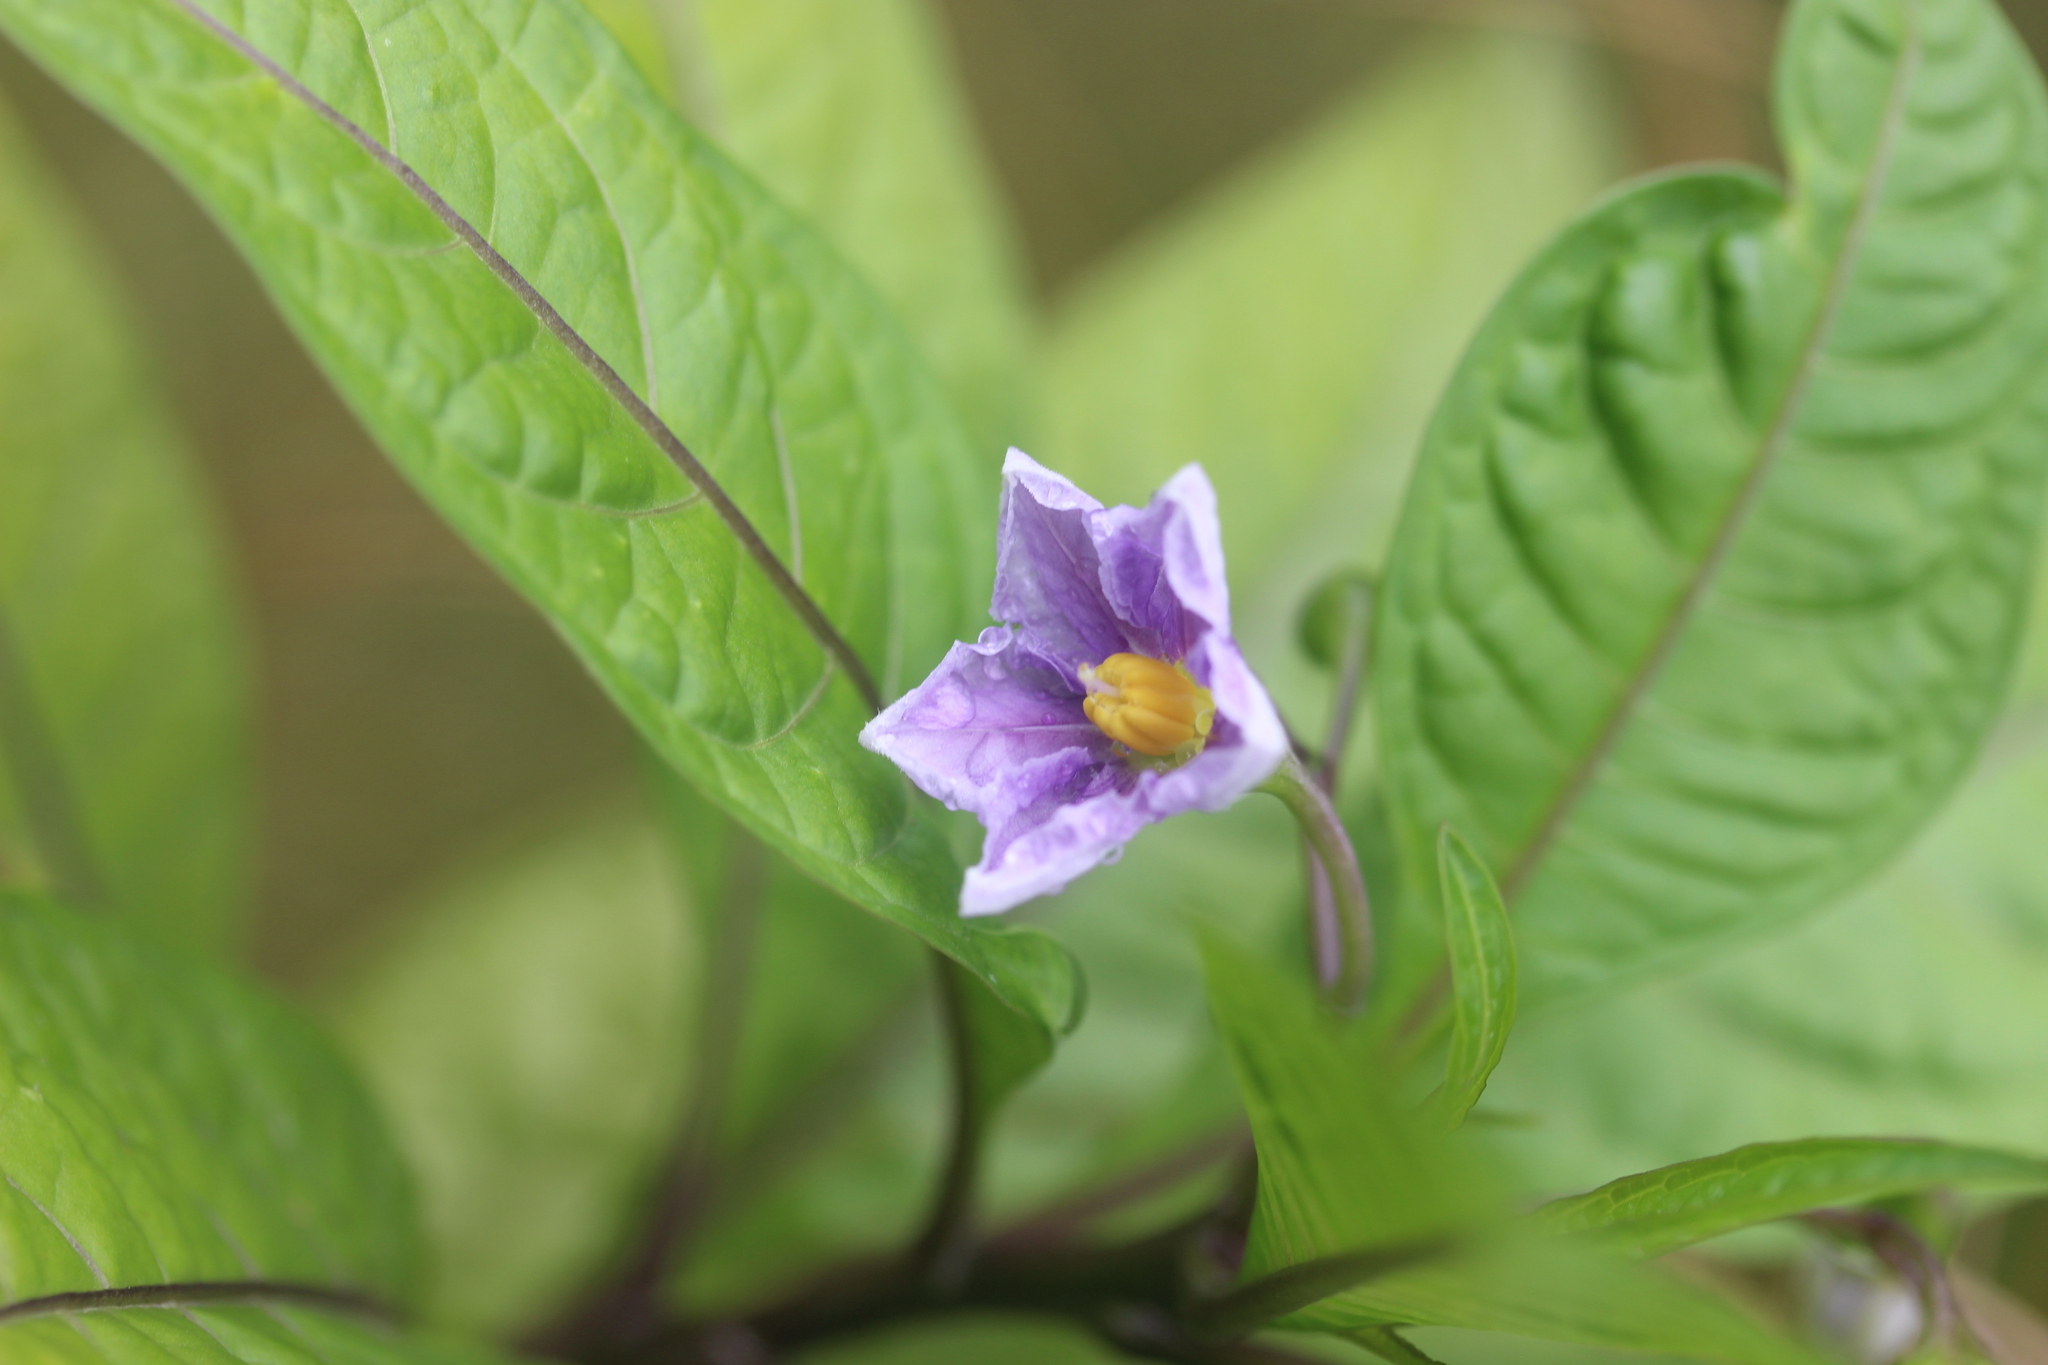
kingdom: Plantae
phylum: Tracheophyta
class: Magnoliopsida
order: Solanales
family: Solanaceae
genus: Solanum
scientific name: Solanum aviculare
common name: New zealand nightshade
